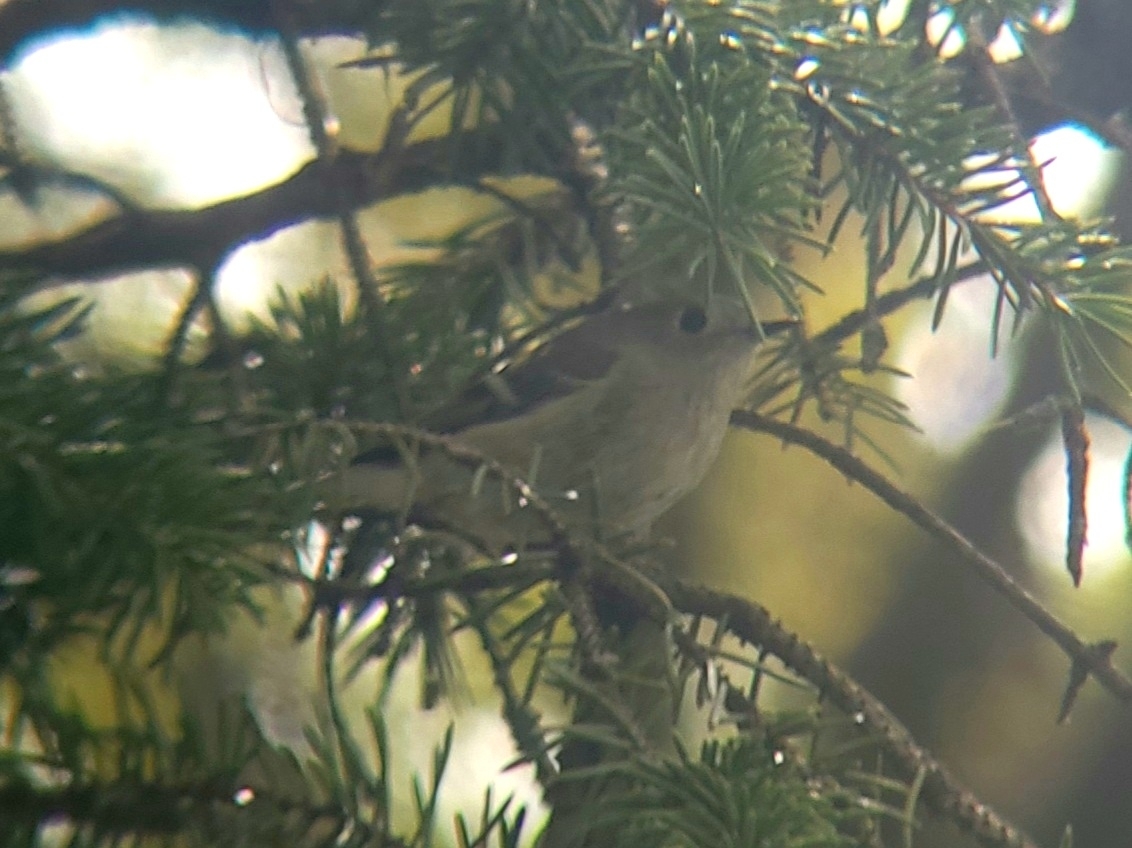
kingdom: Animalia
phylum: Chordata
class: Aves
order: Passeriformes
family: Regulidae
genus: Regulus
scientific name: Regulus calendula
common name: Ruby-crowned kinglet
